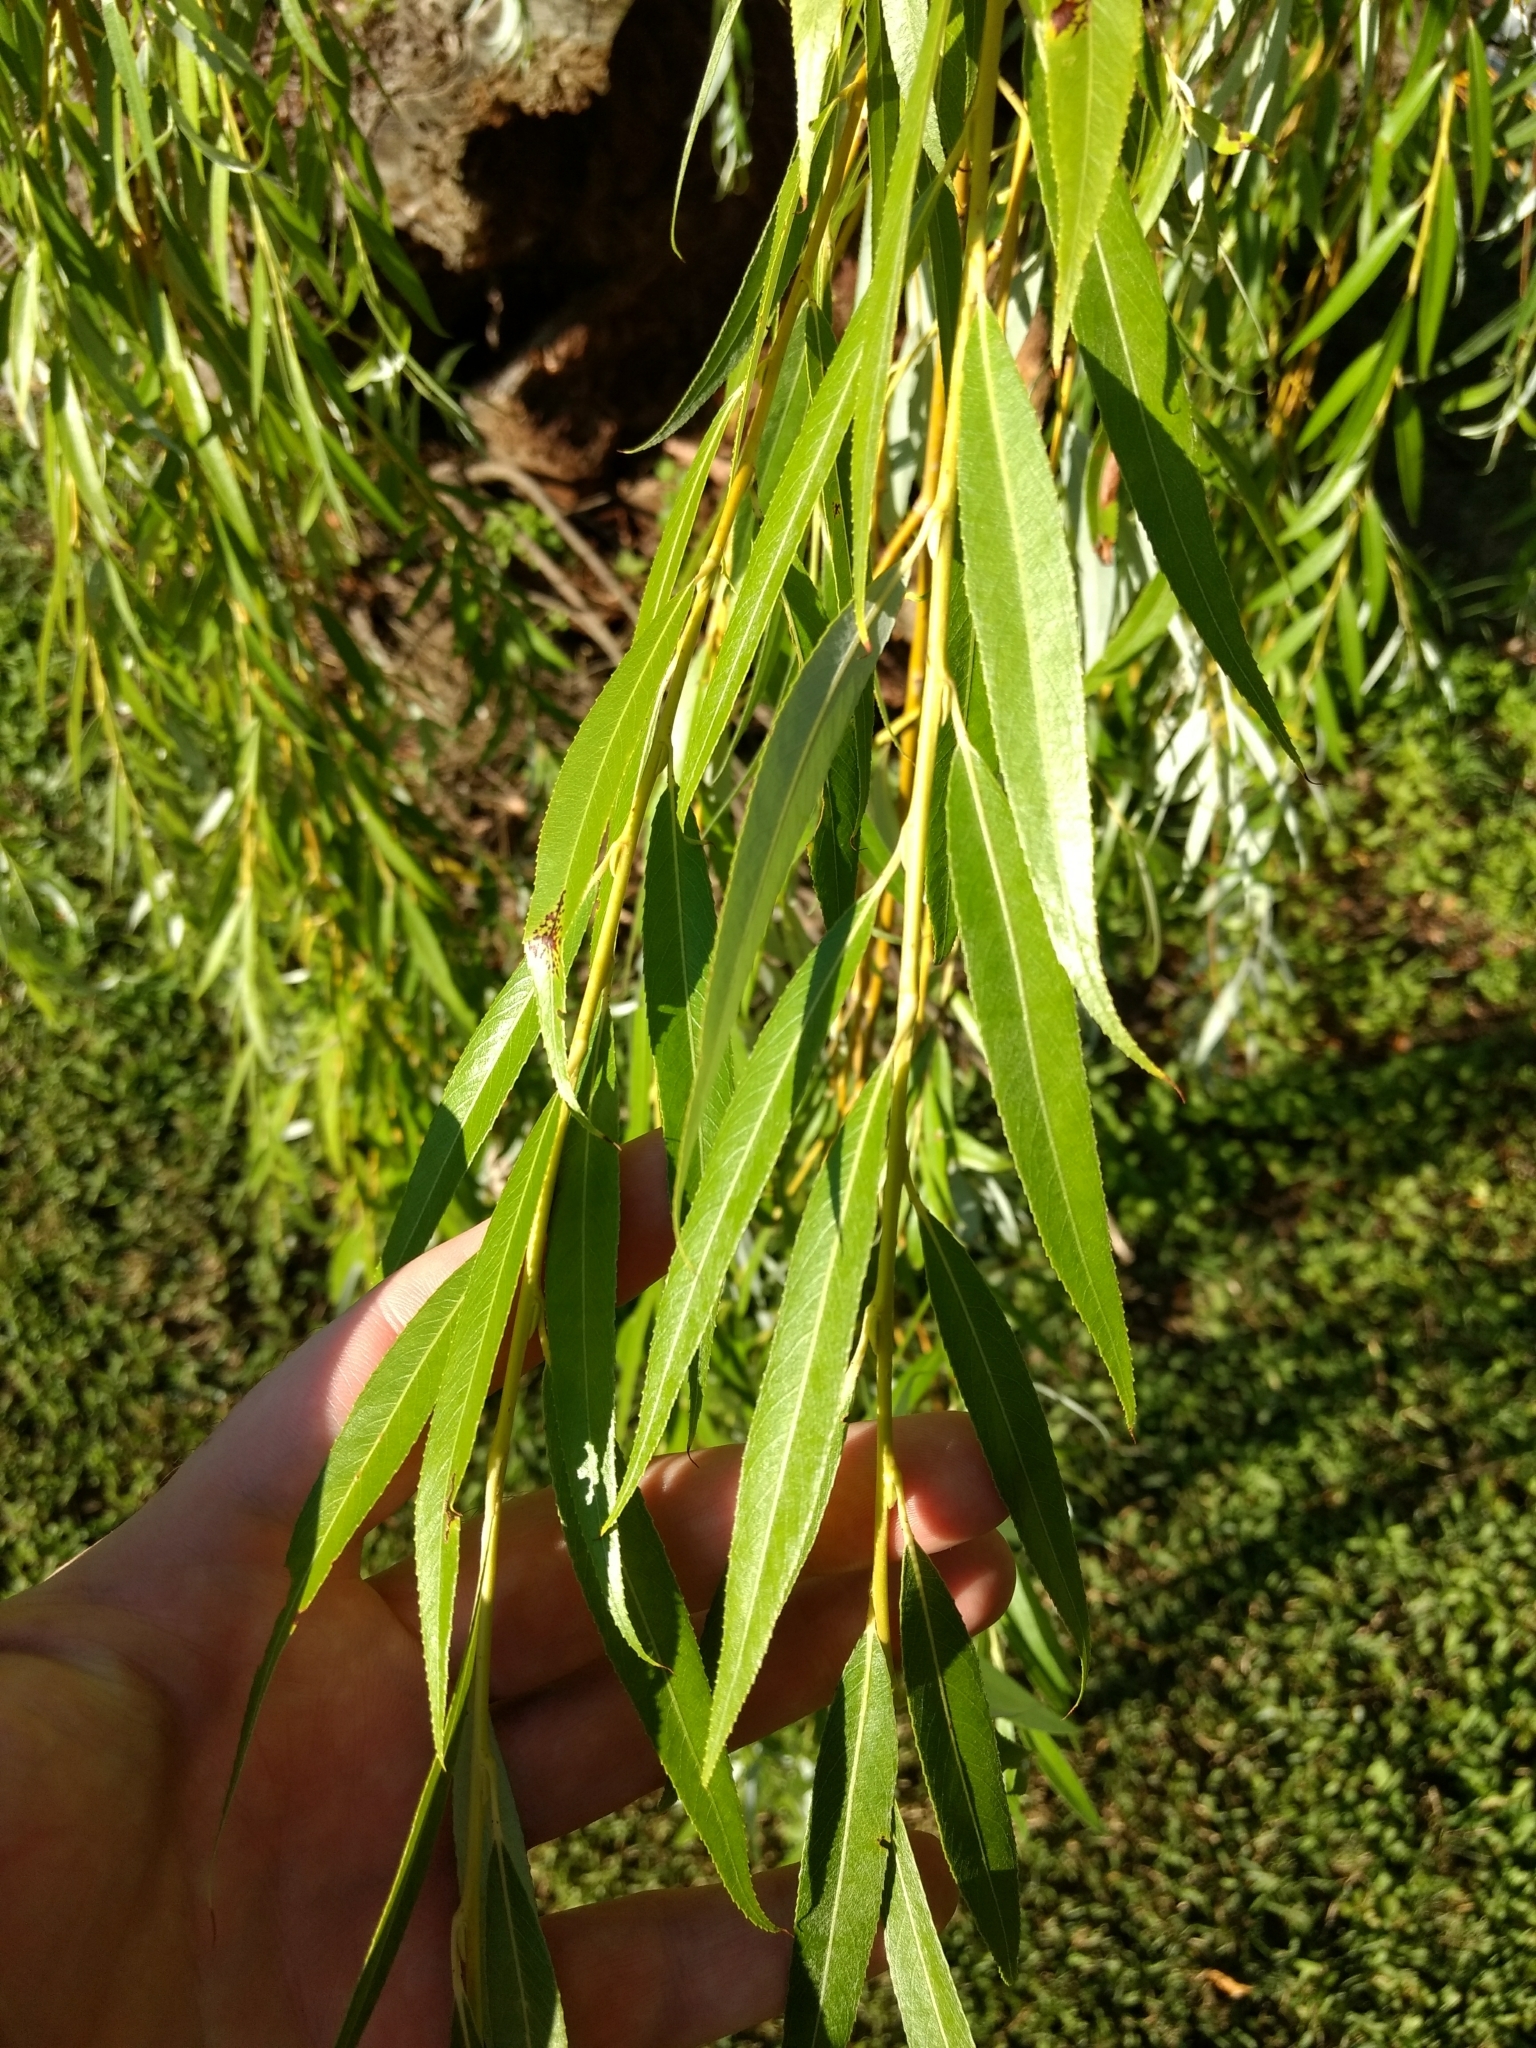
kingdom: Plantae
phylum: Tracheophyta
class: Magnoliopsida
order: Malpighiales
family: Salicaceae
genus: Salix
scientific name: Salix babylonica
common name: Weeping willow
